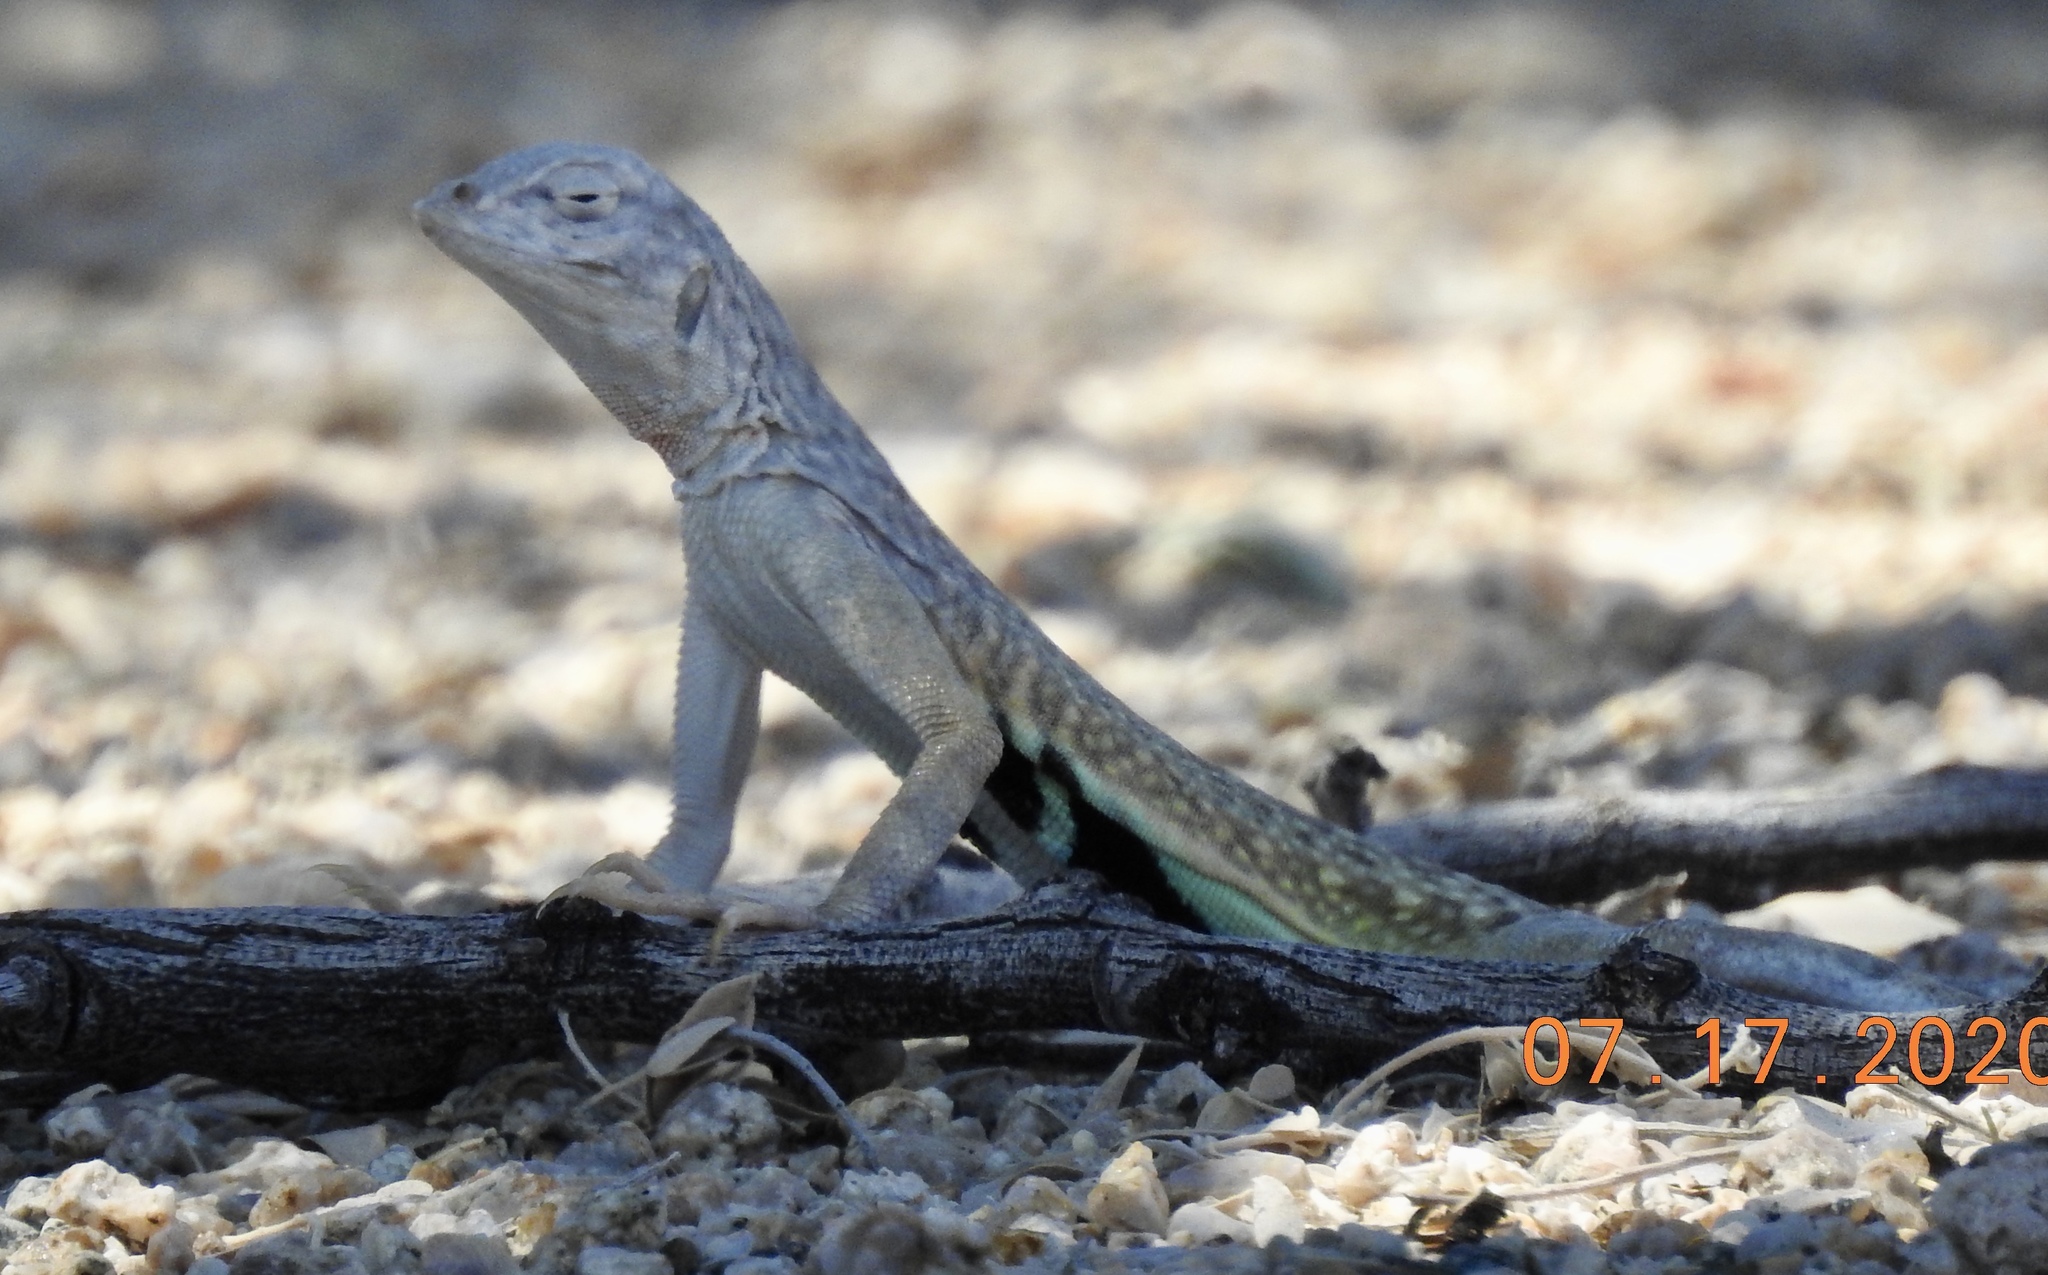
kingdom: Animalia
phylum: Chordata
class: Squamata
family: Phrynosomatidae
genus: Callisaurus
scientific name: Callisaurus draconoides
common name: Zebra-tailed lizard
